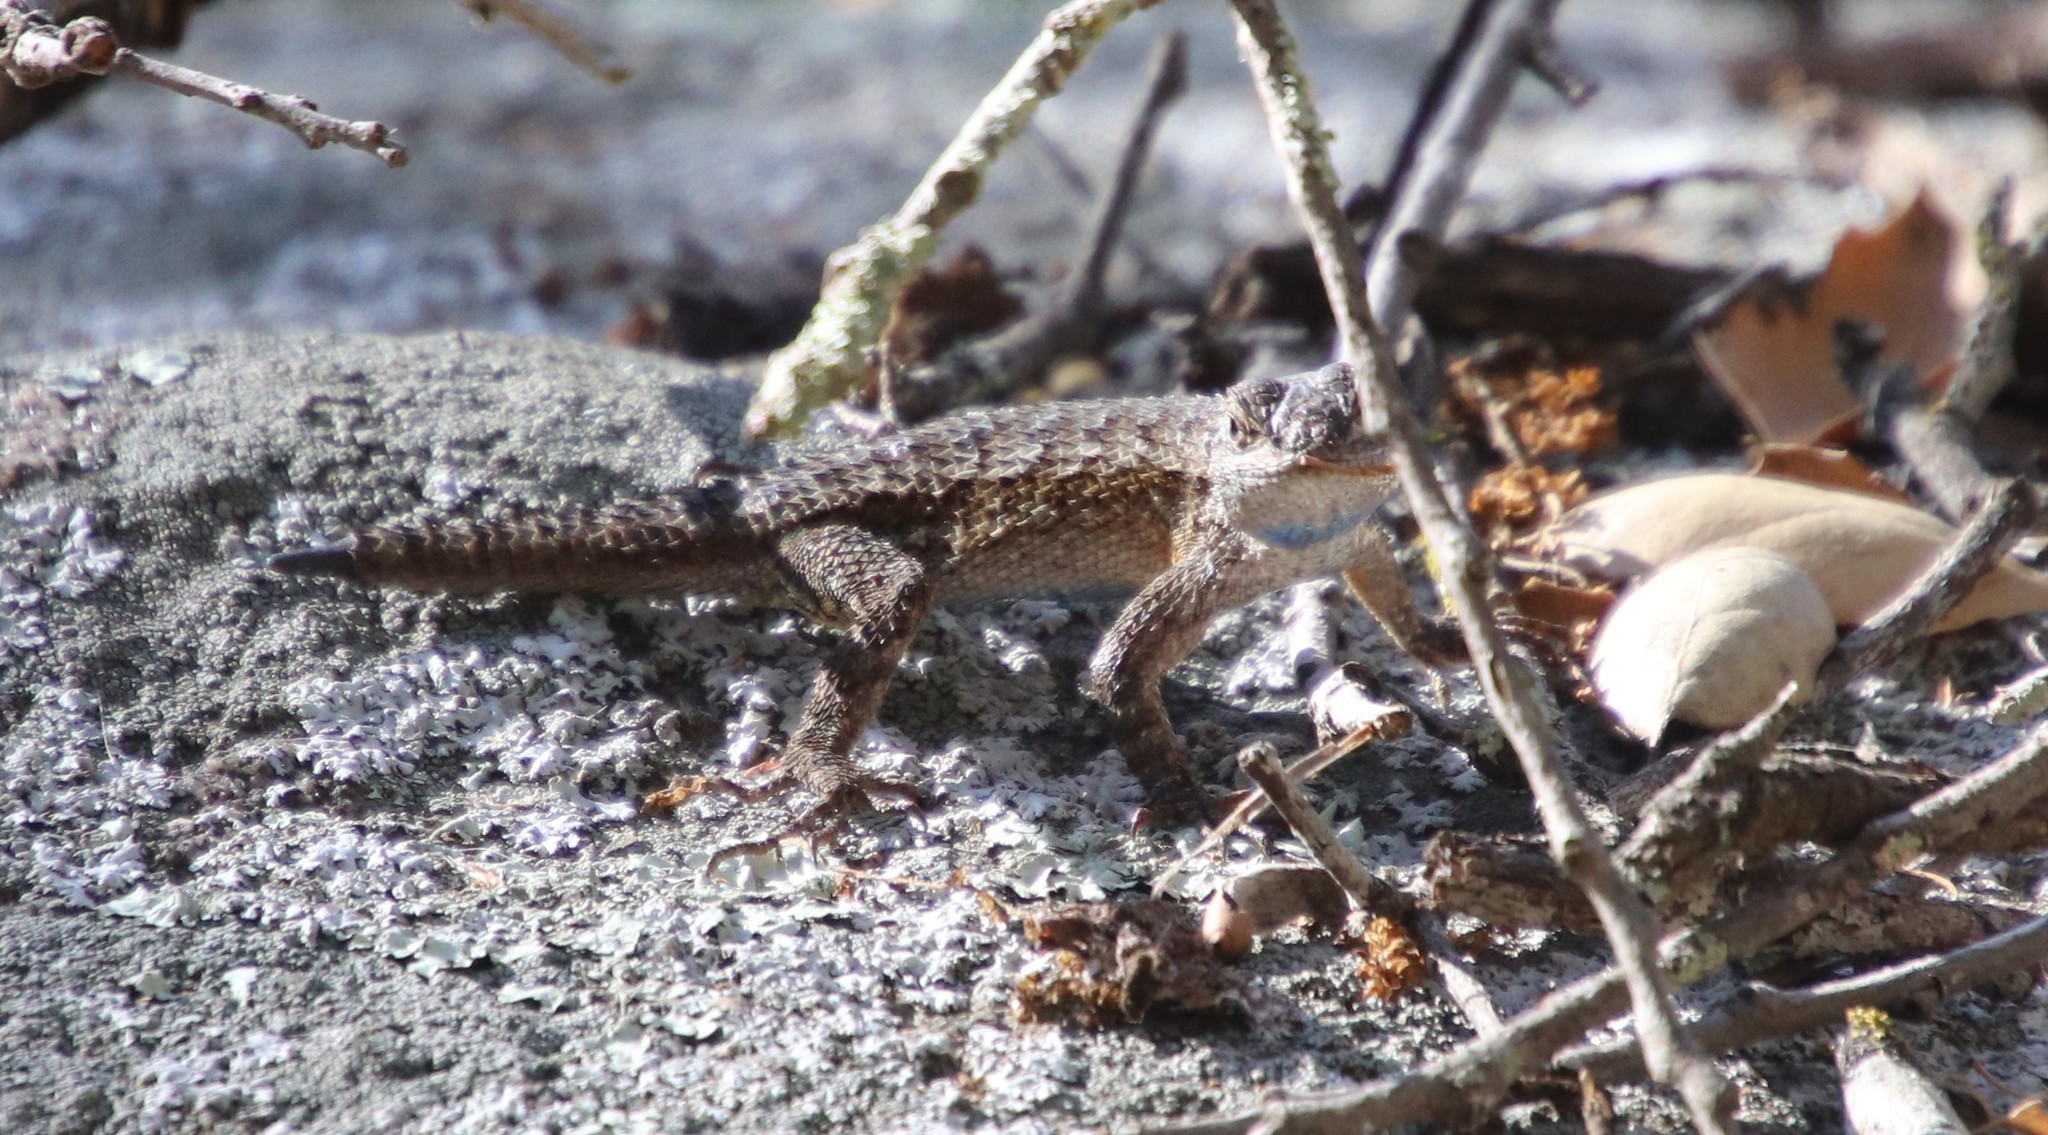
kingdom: Animalia
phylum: Chordata
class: Squamata
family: Phrynosomatidae
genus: Sceloporus
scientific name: Sceloporus occidentalis
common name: Western fence lizard
